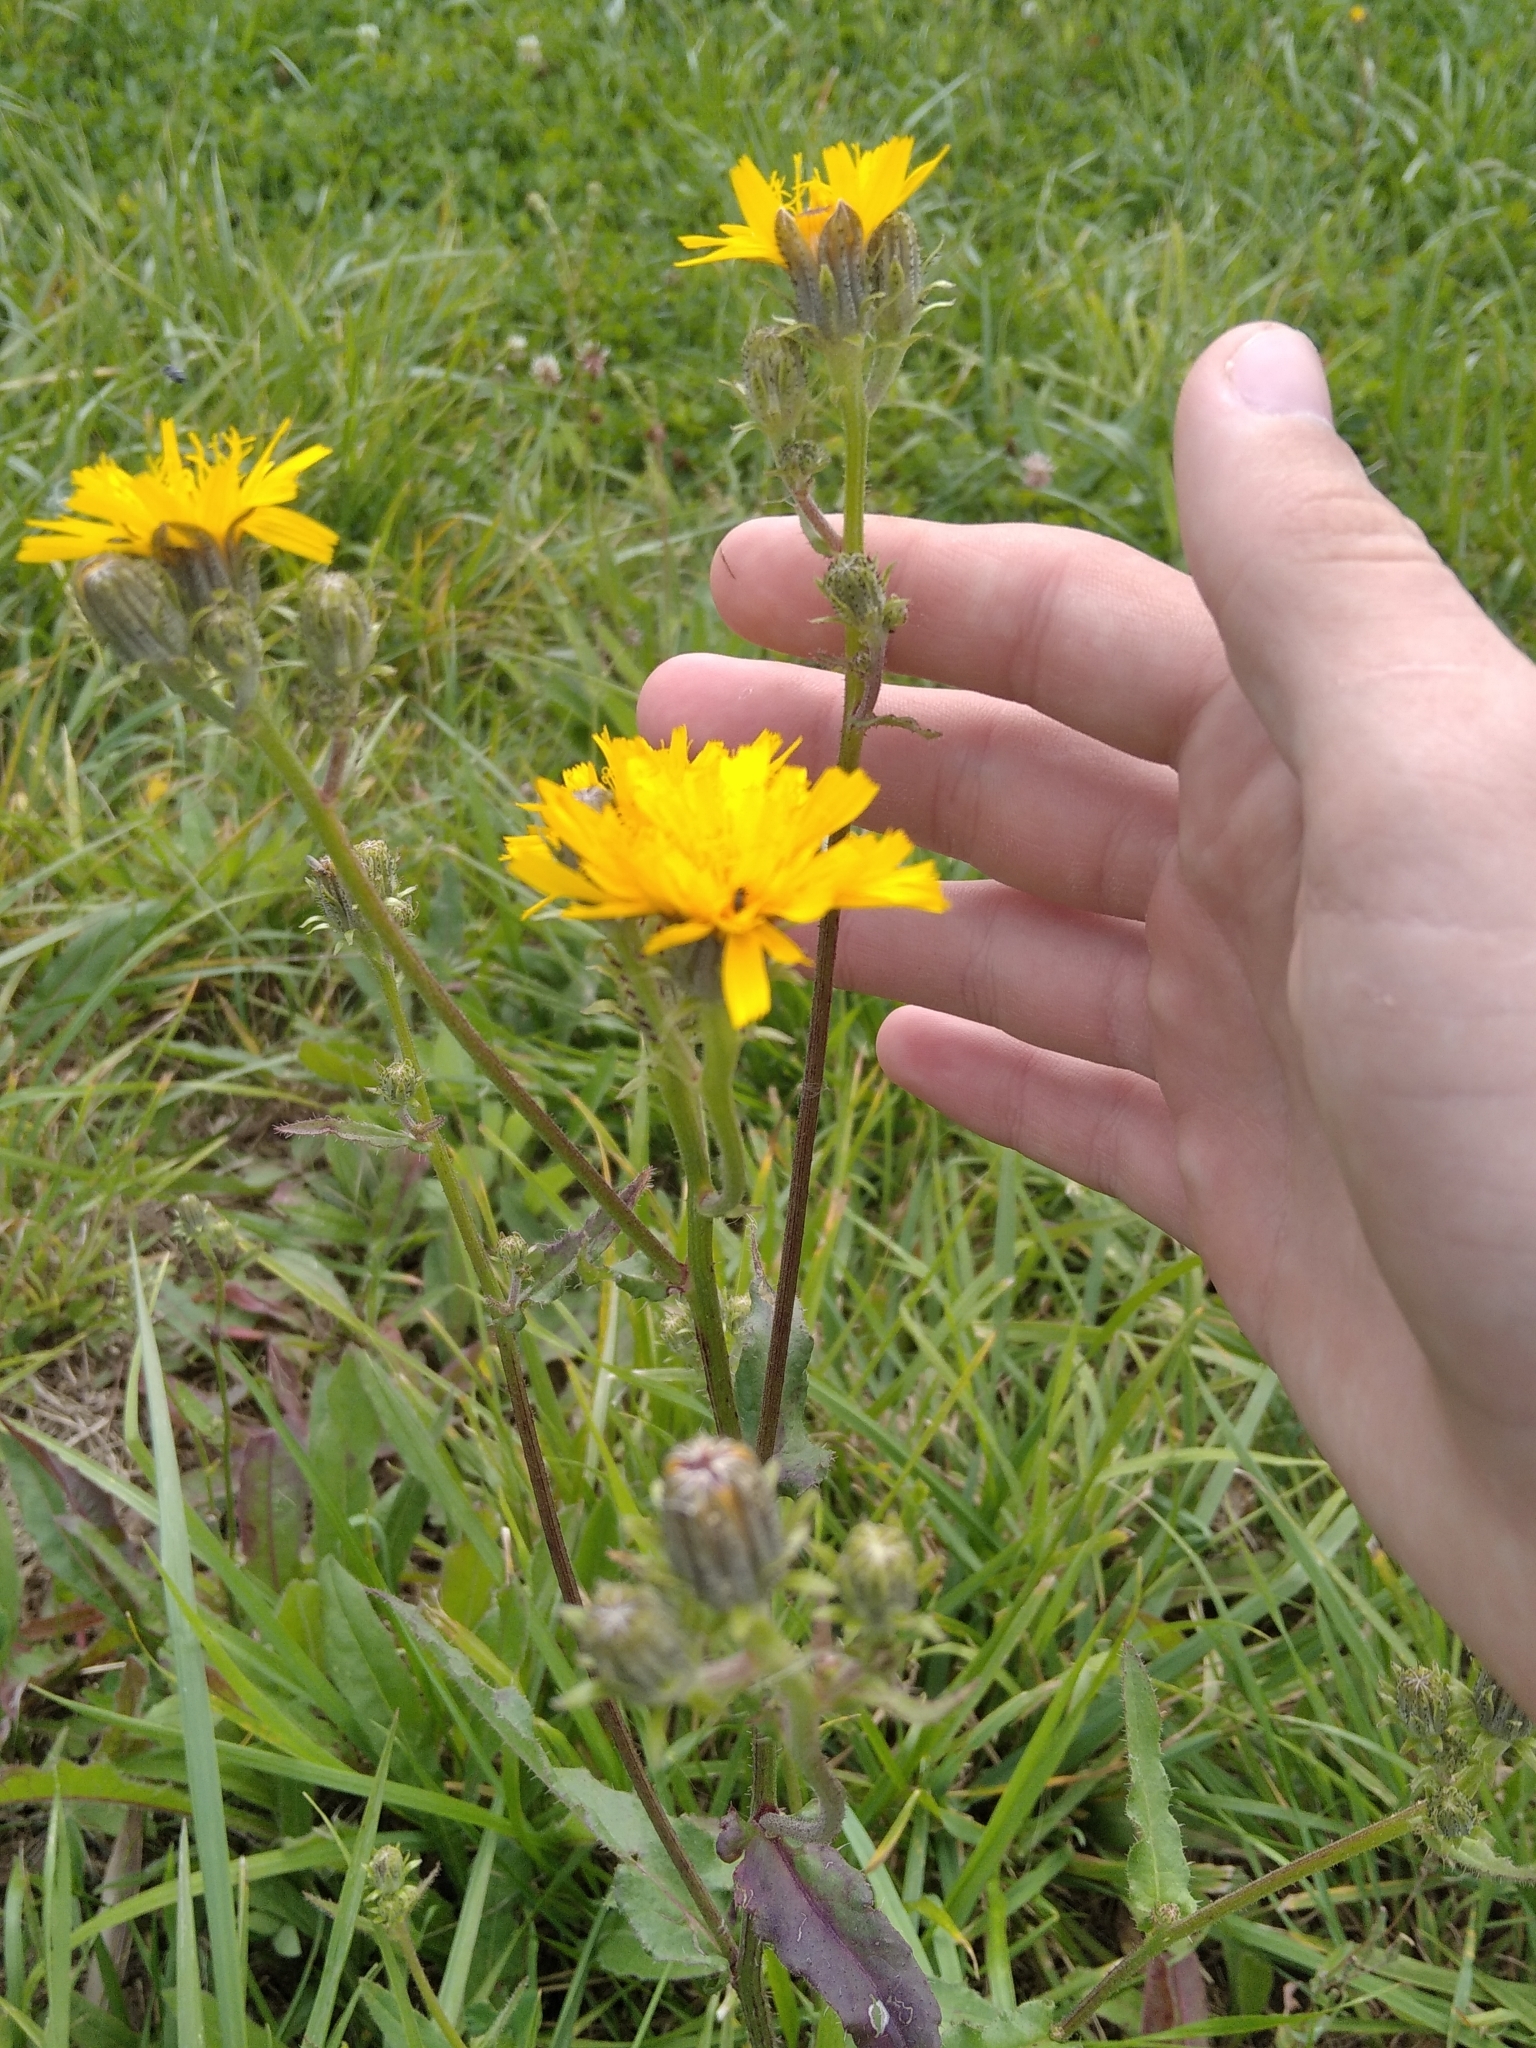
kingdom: Plantae
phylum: Tracheophyta
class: Magnoliopsida
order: Asterales
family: Asteraceae
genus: Picris
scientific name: Picris hieracioides
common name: Hawkweed oxtongue
